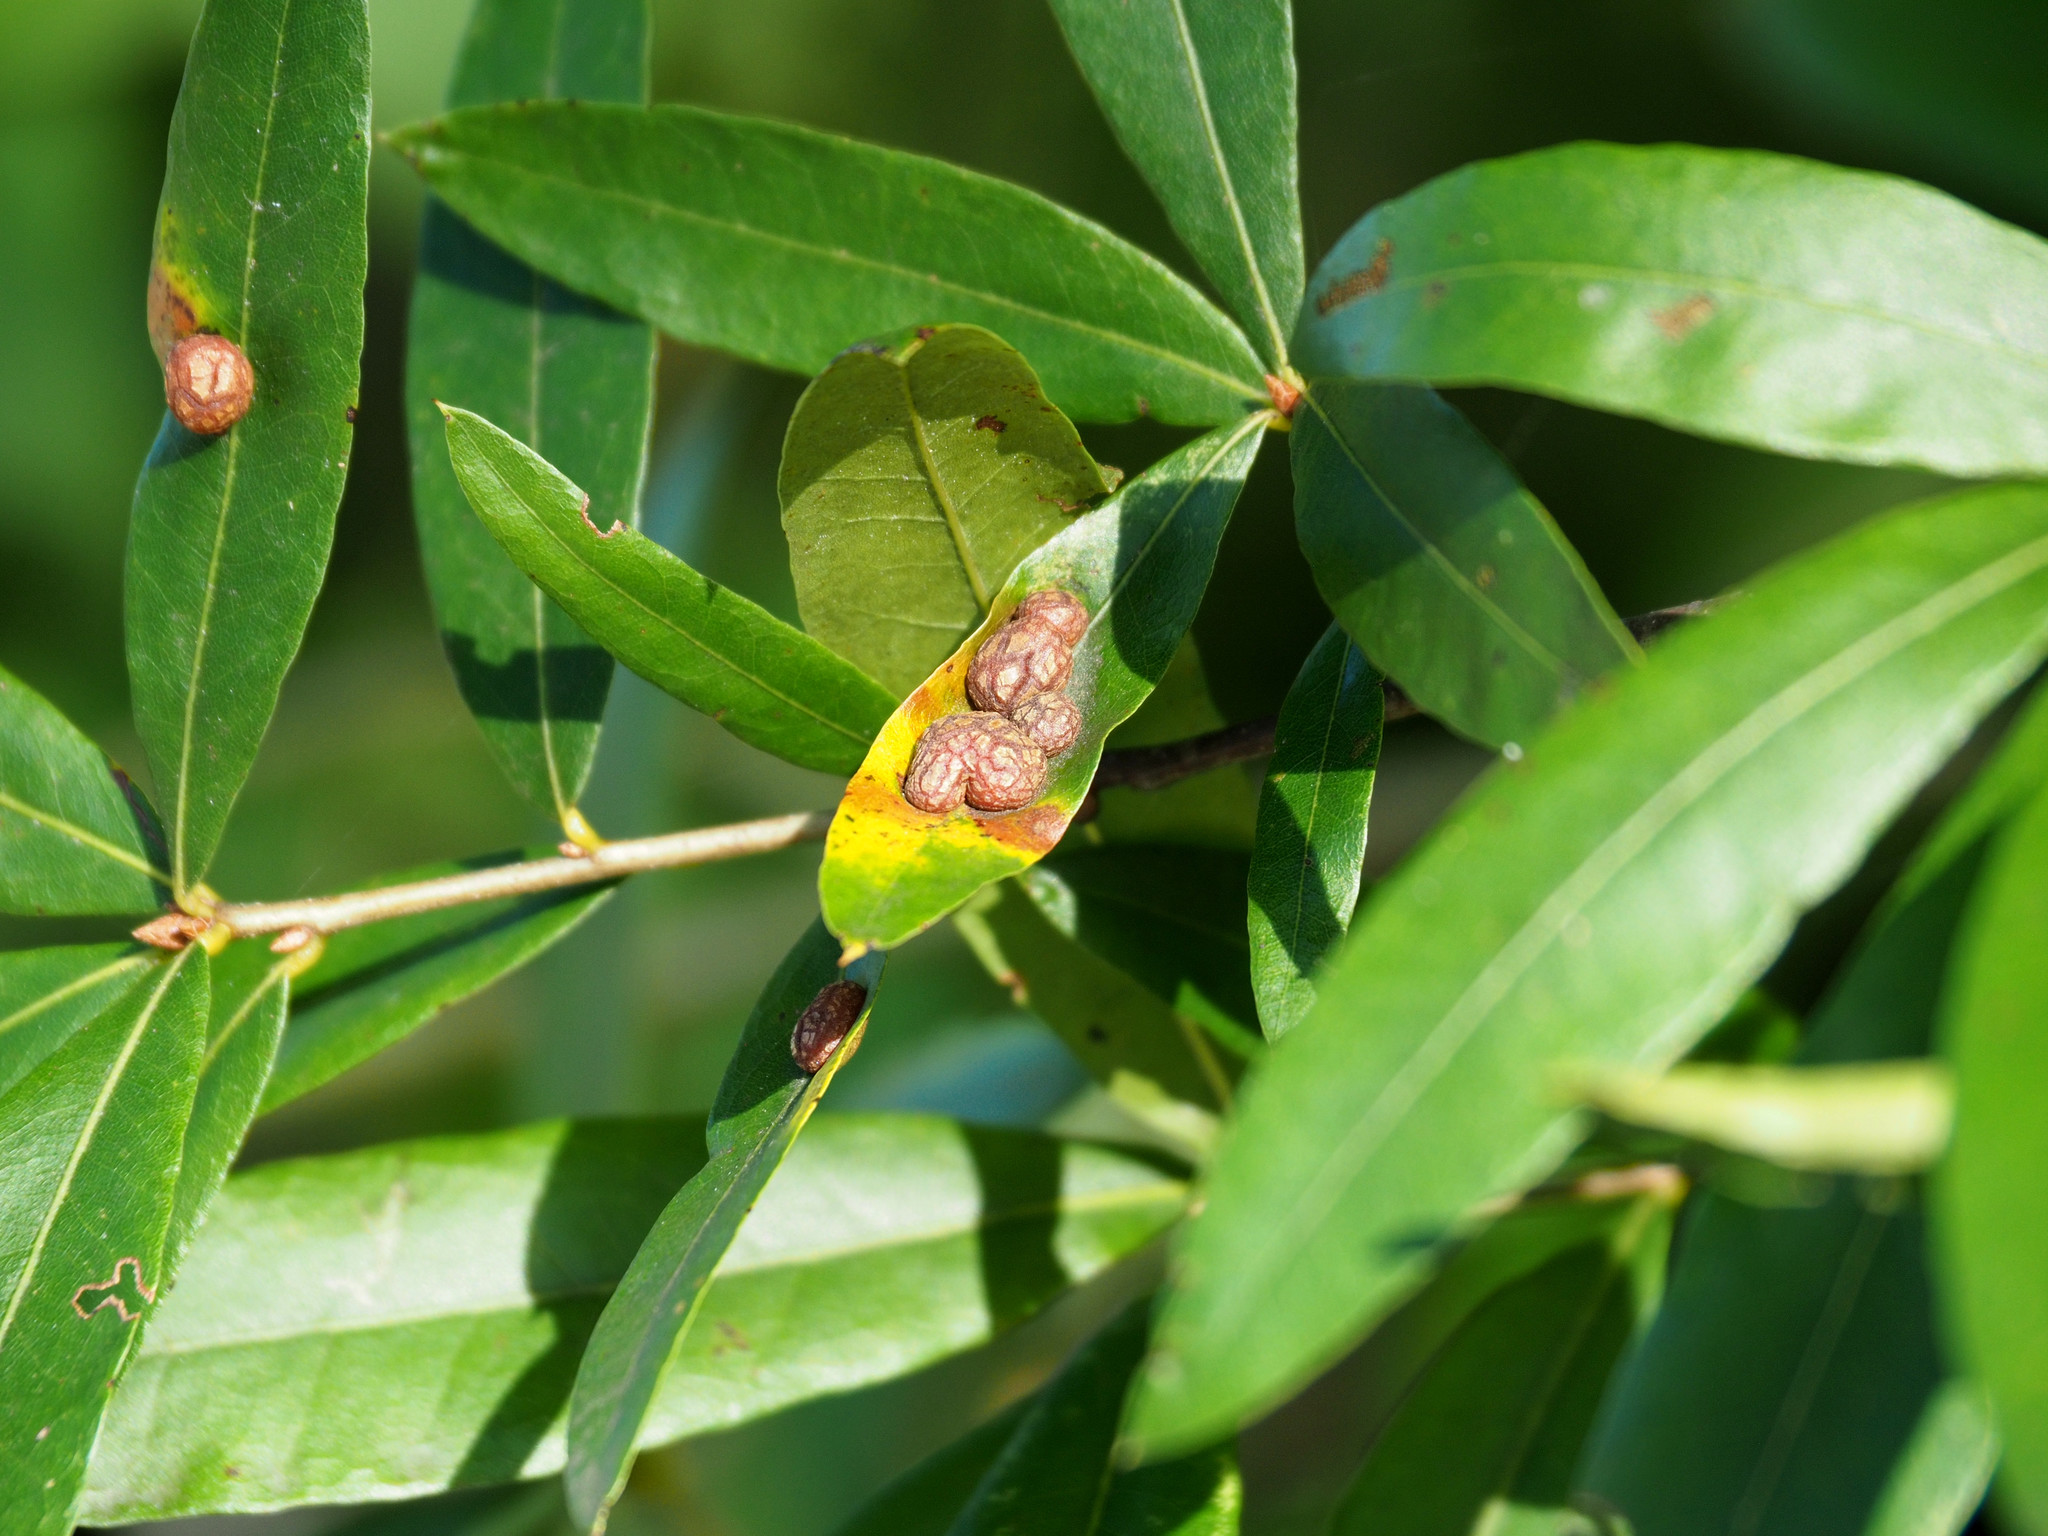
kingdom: Animalia
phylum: Arthropoda
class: Insecta
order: Diptera
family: Cecidomyiidae
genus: Polystepha
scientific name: Polystepha pilulae
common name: Oak leaf gall midge
